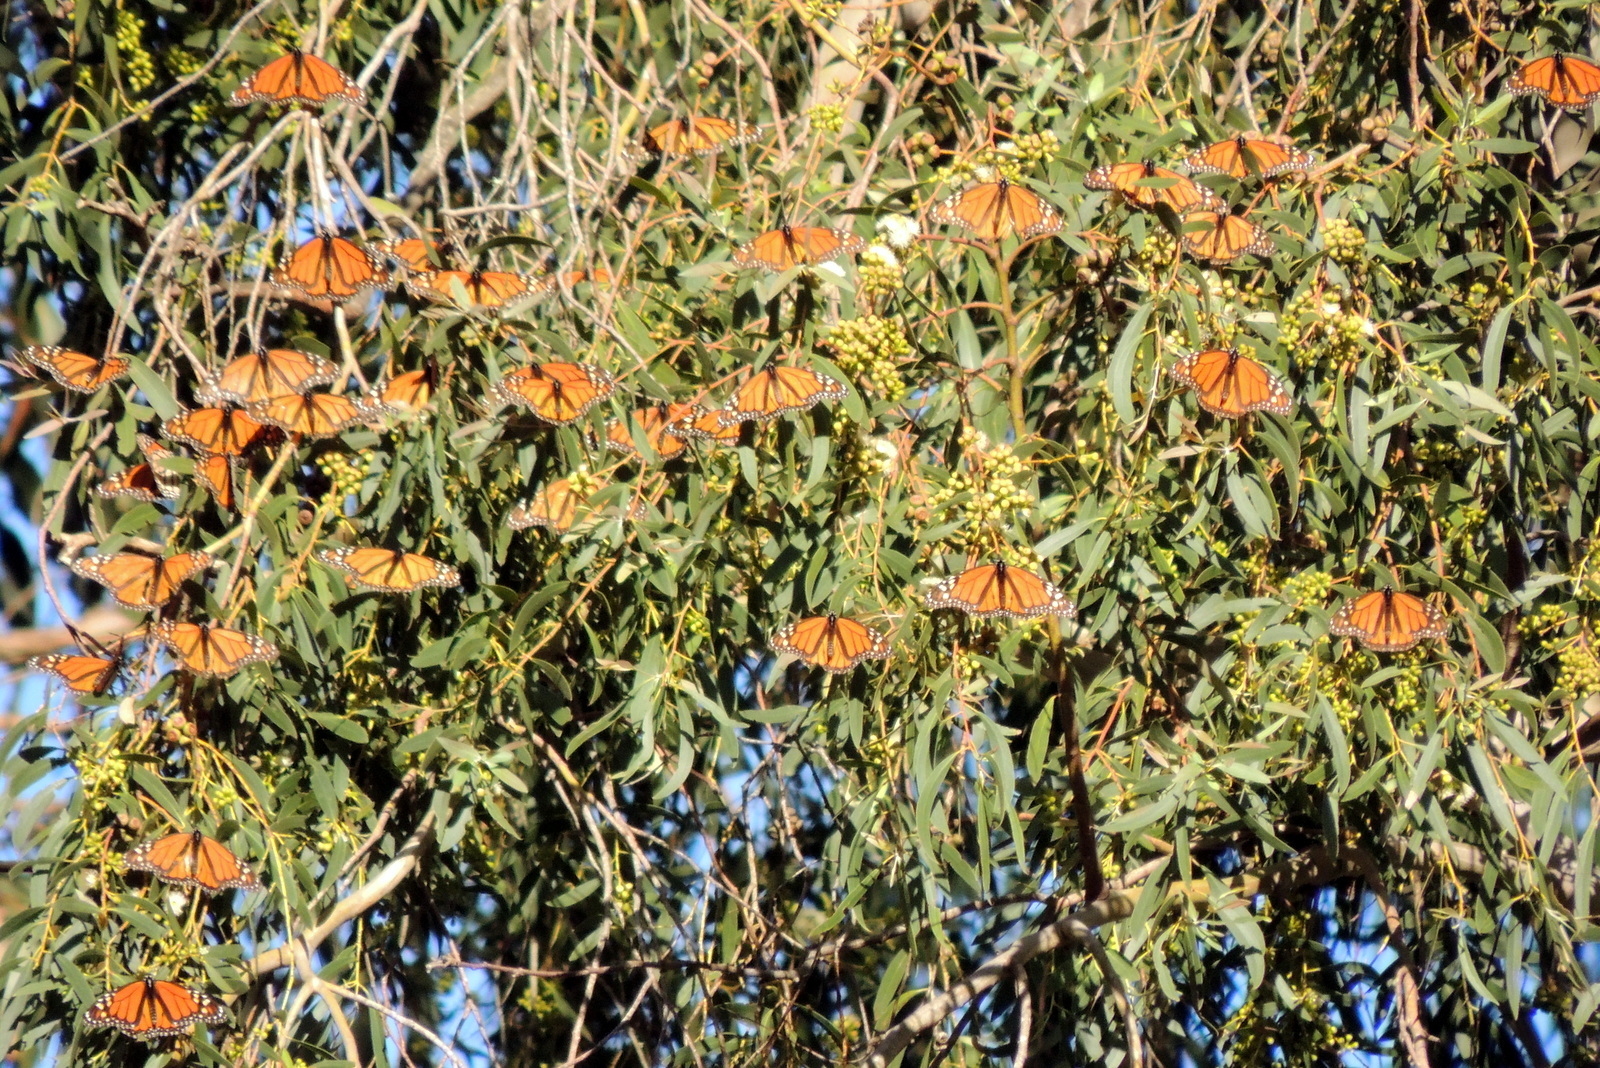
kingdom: Animalia
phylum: Arthropoda
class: Insecta
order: Lepidoptera
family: Nymphalidae
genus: Danaus
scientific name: Danaus plexippus
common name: Monarch
